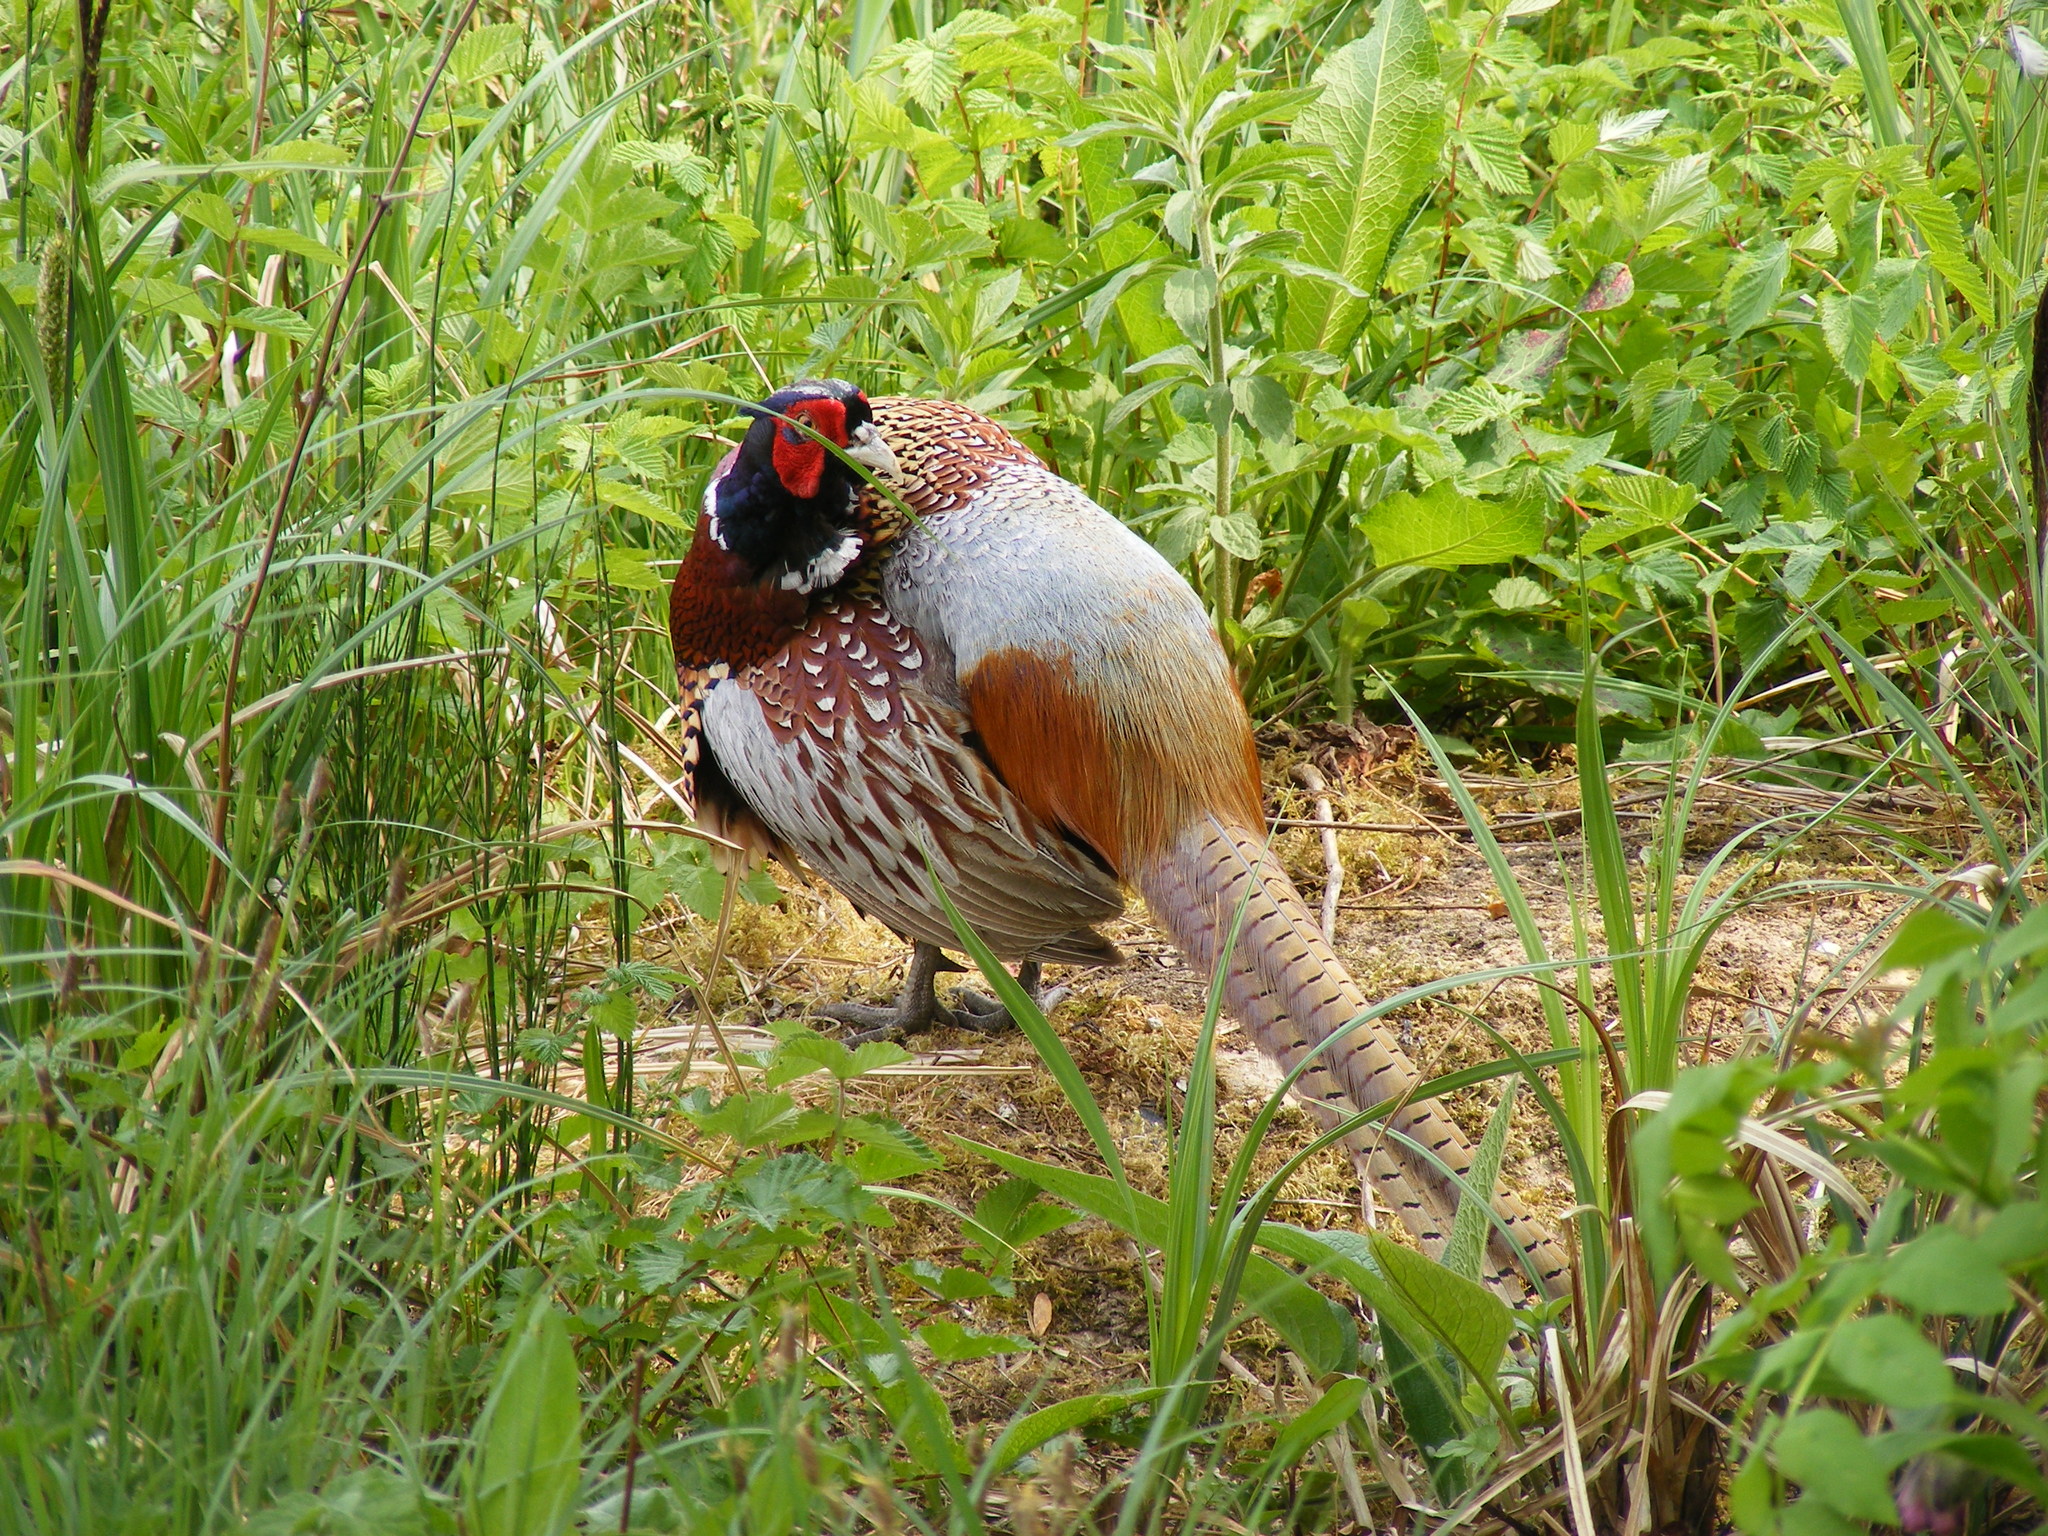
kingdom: Animalia
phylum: Chordata
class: Aves
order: Galliformes
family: Phasianidae
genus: Phasianus
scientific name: Phasianus colchicus
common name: Common pheasant
